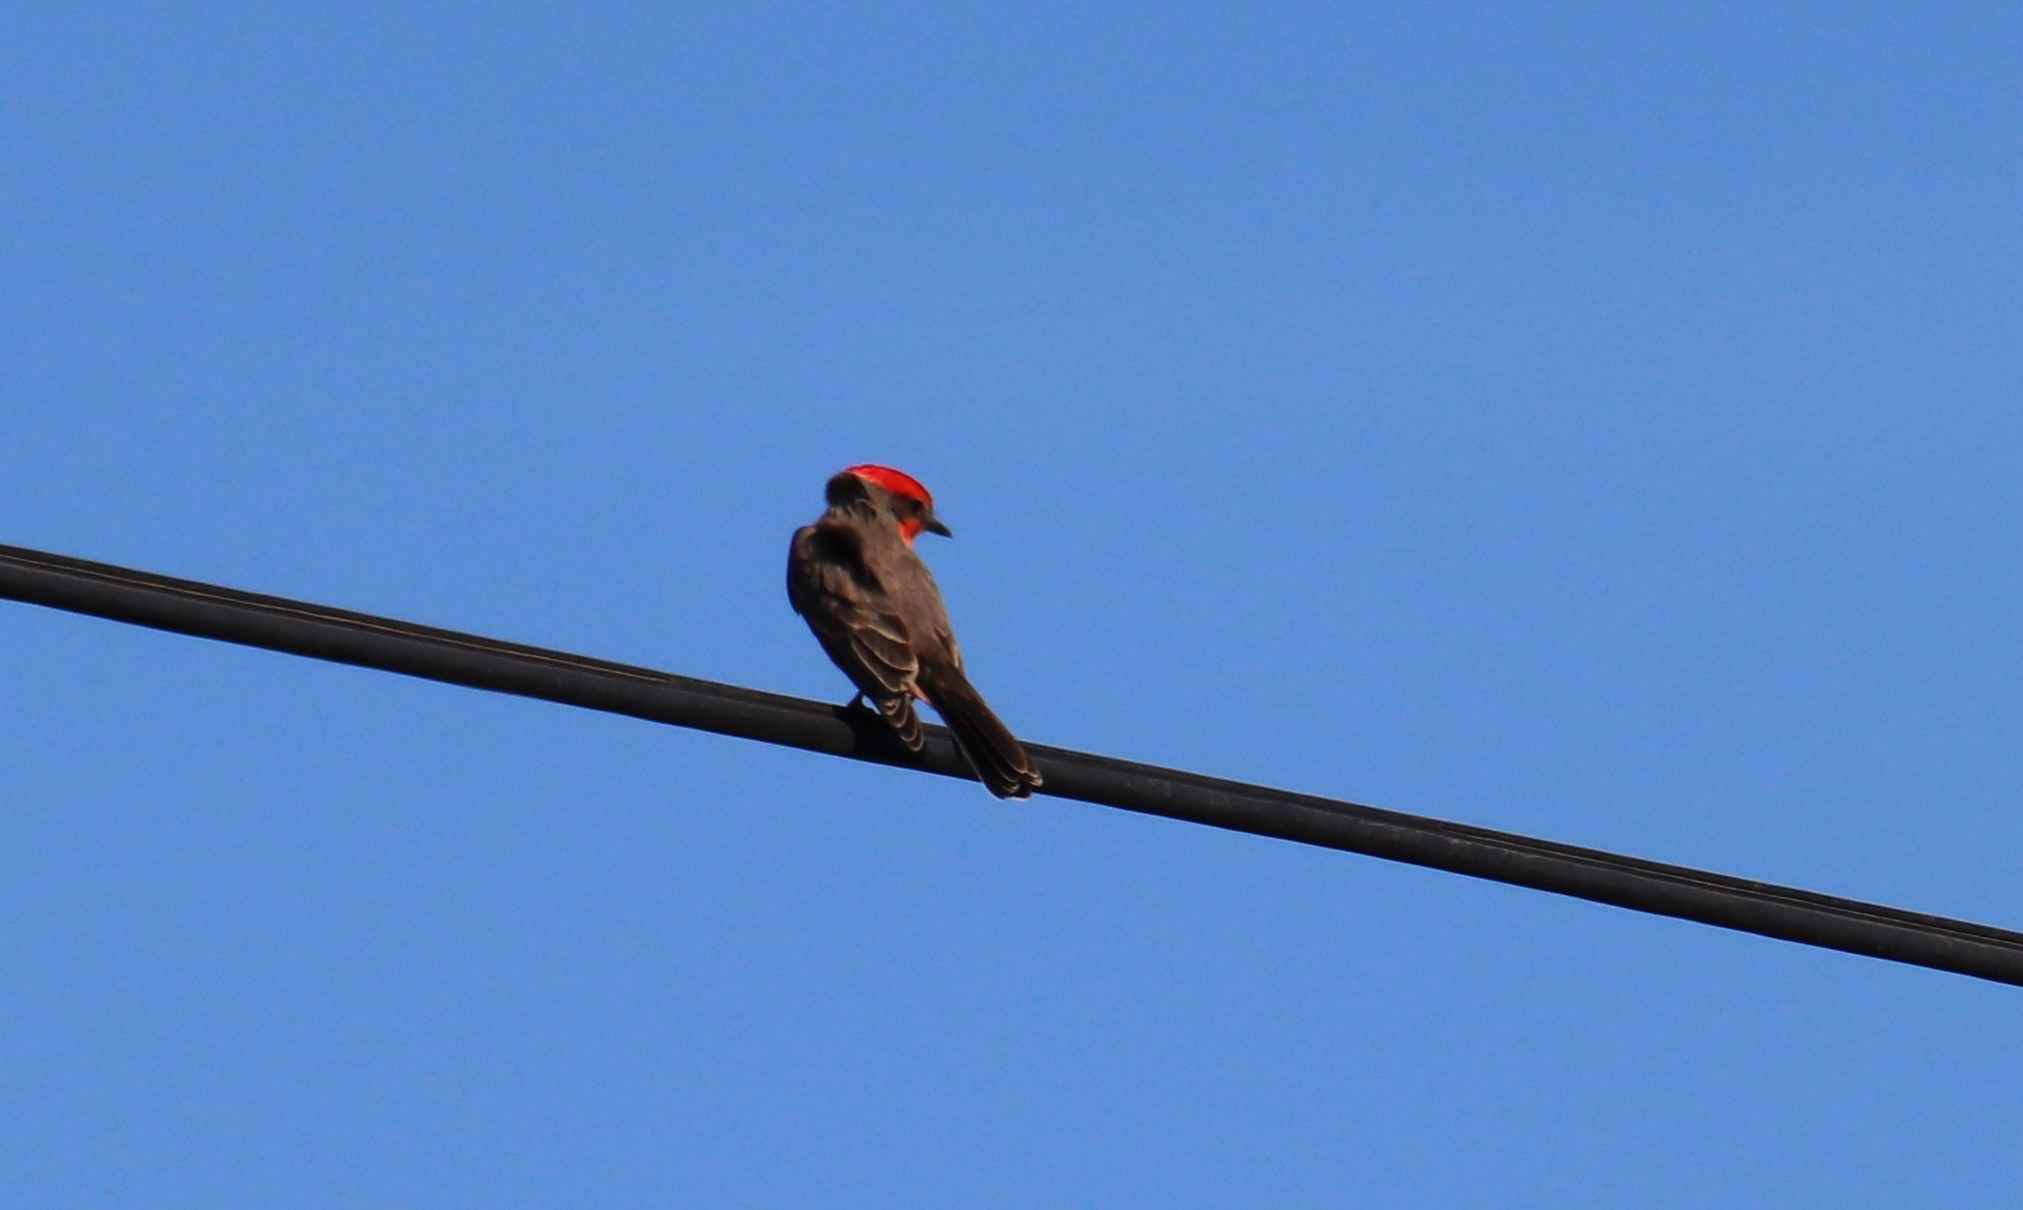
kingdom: Animalia
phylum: Chordata
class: Aves
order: Passeriformes
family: Tyrannidae
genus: Pyrocephalus
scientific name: Pyrocephalus rubinus
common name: Vermilion flycatcher
